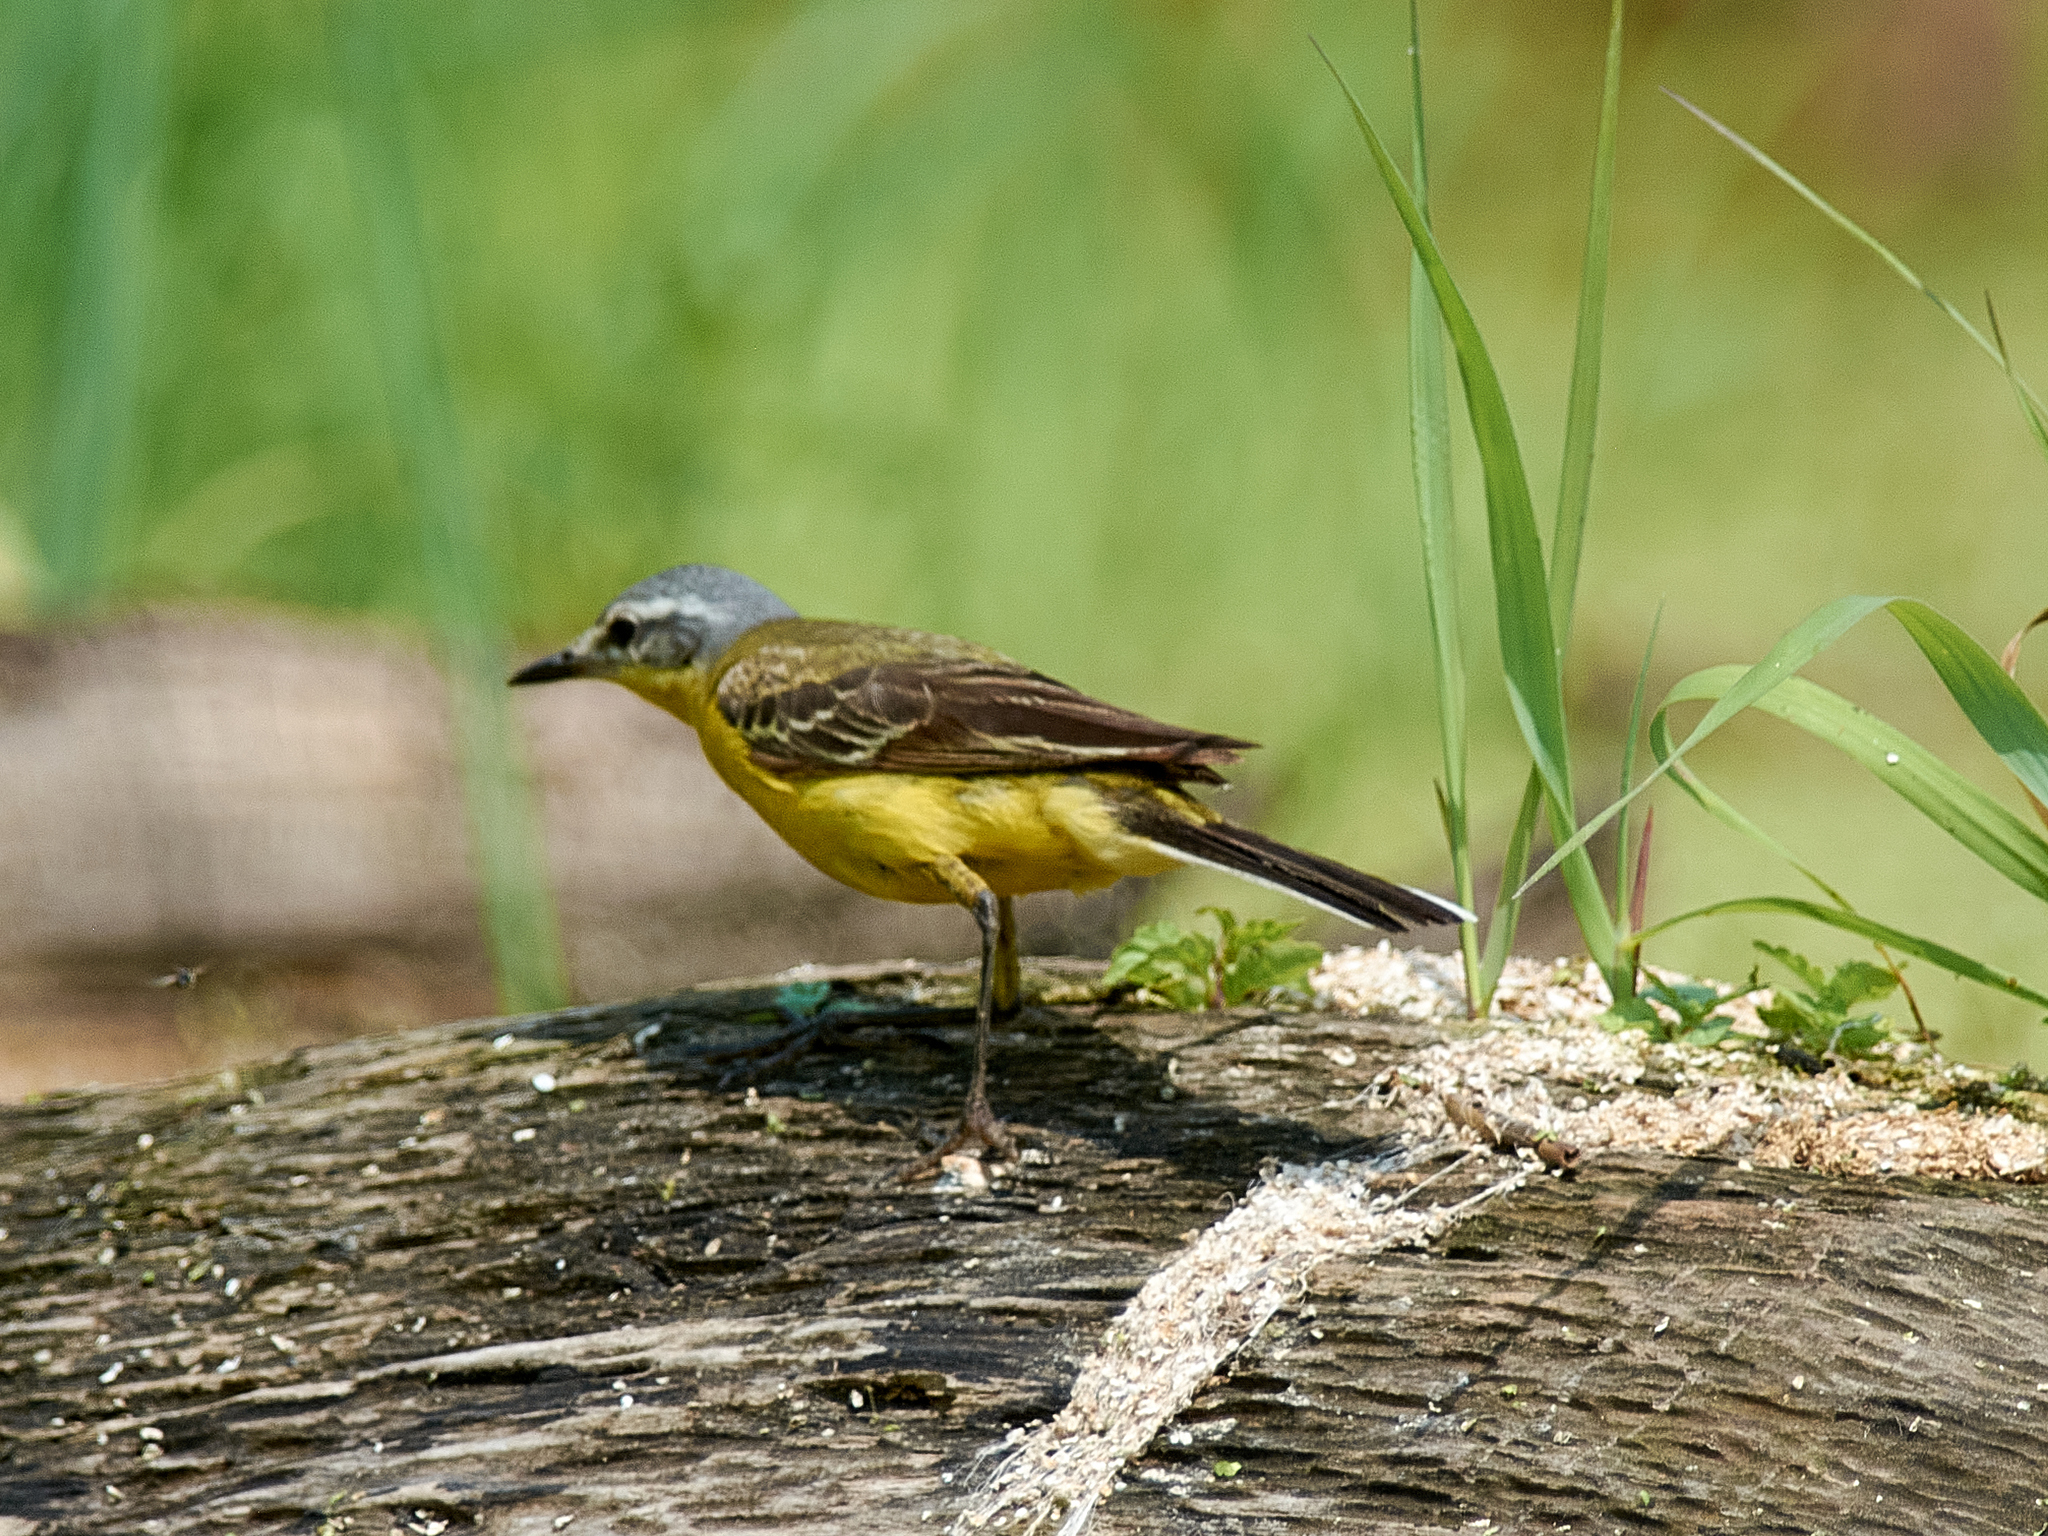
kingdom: Animalia
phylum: Chordata
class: Aves
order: Passeriformes
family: Motacillidae
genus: Motacilla
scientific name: Motacilla flava
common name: Western yellow wagtail
